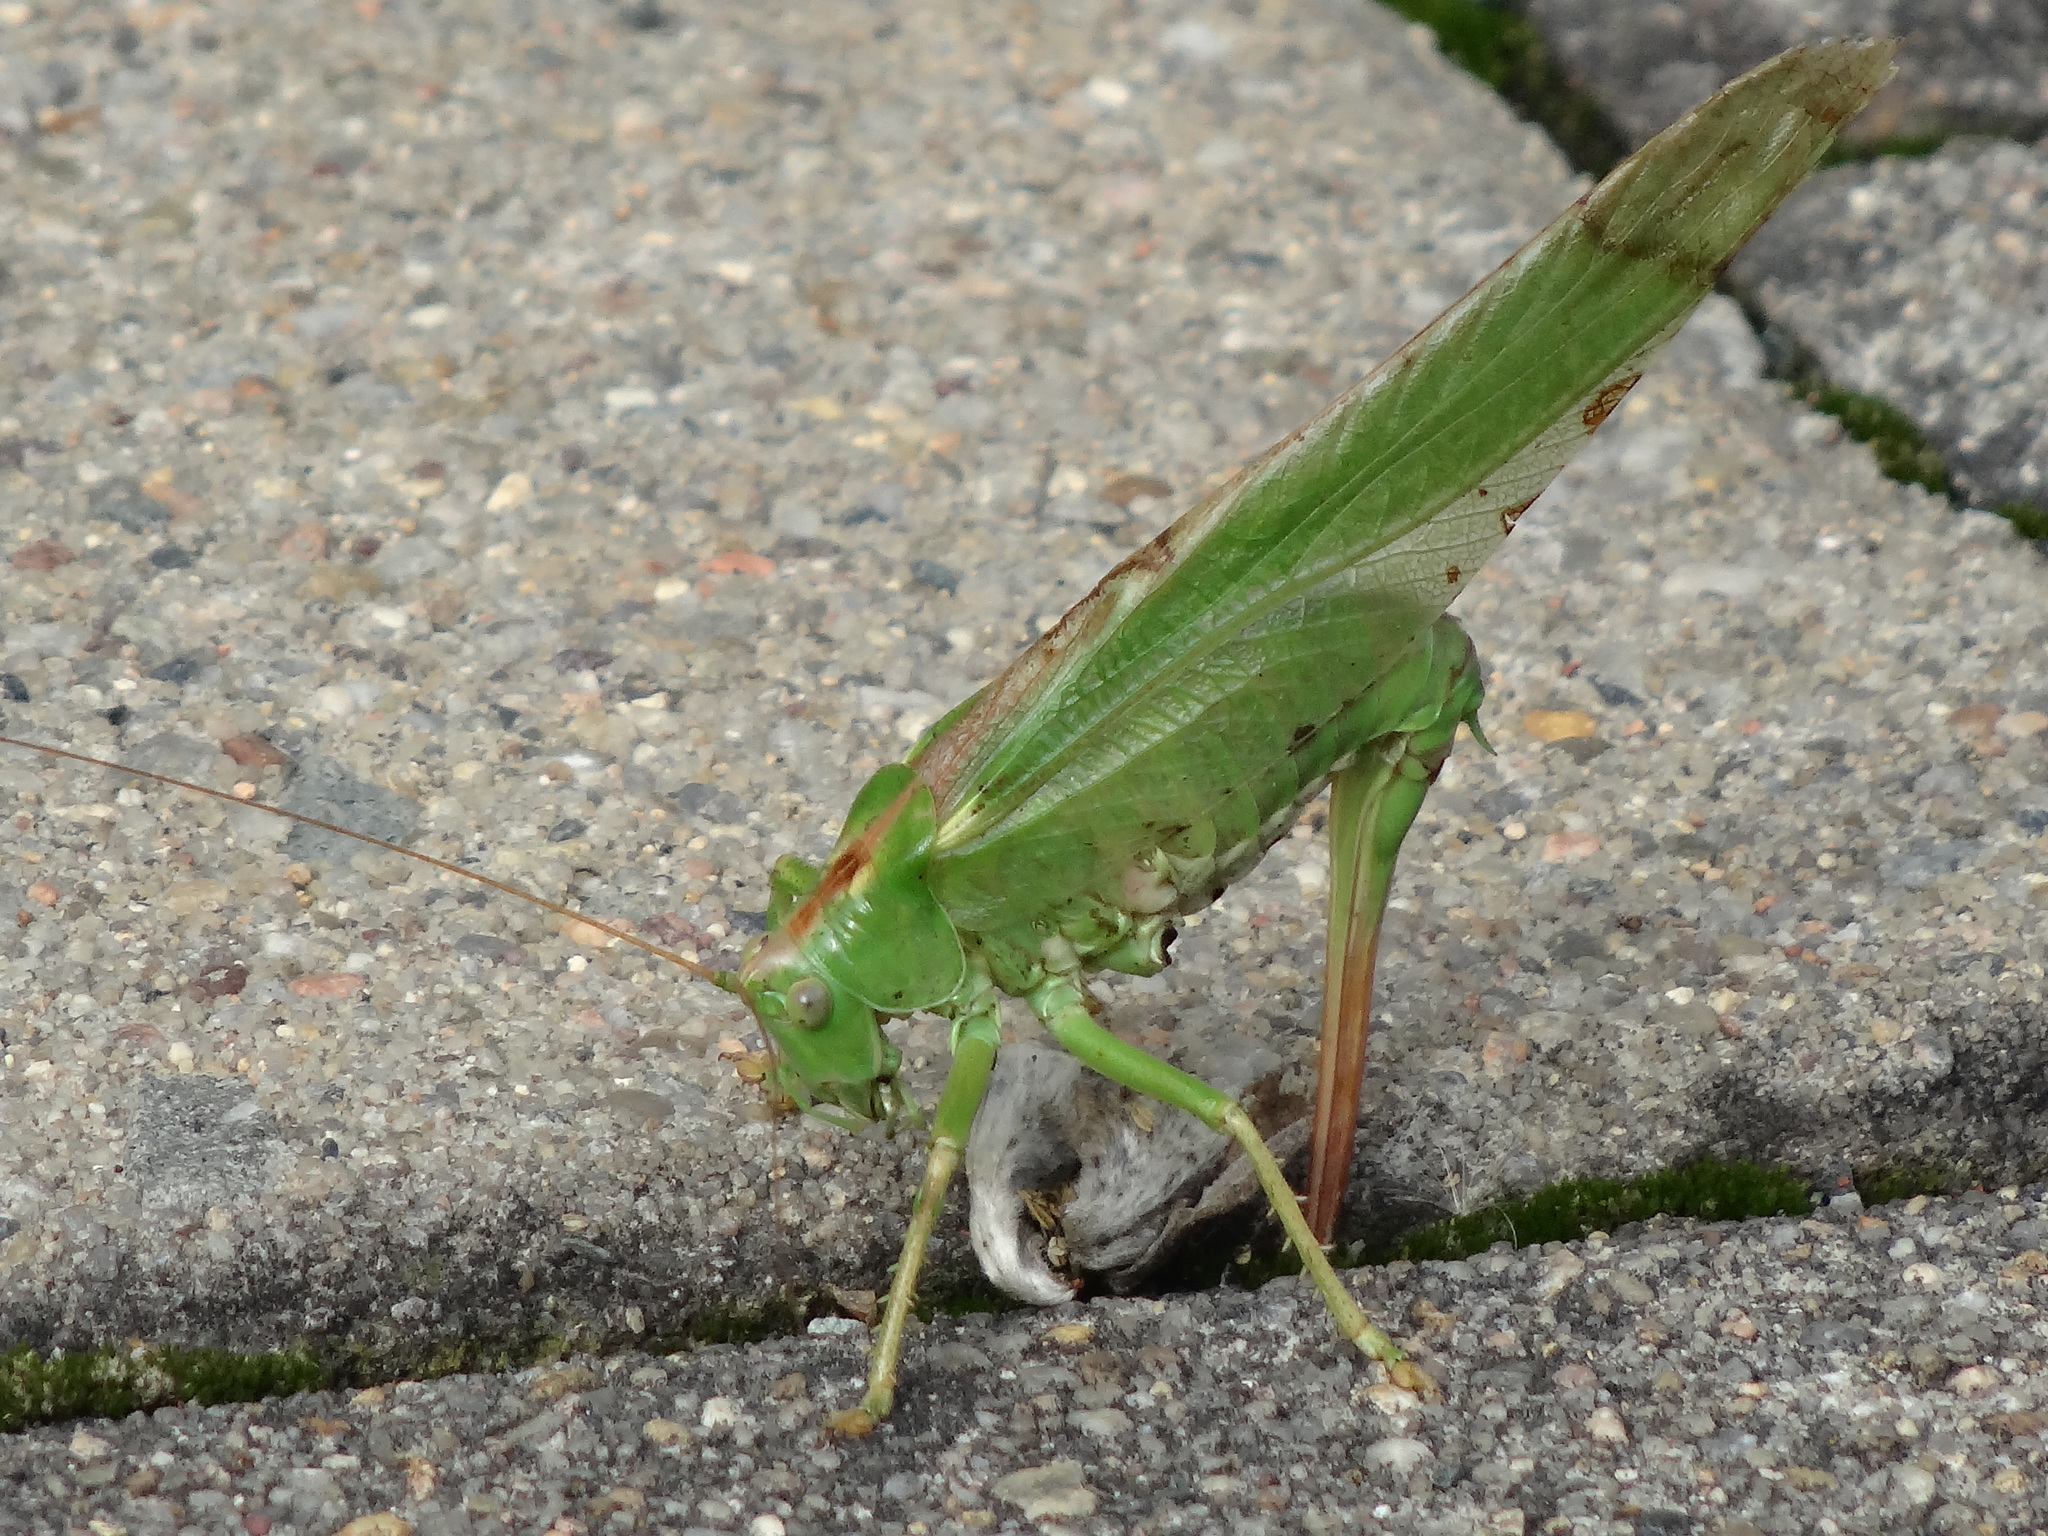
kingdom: Animalia
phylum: Arthropoda
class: Insecta
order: Orthoptera
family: Tettigoniidae
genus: Tettigonia
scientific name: Tettigonia viridissima
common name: Great green bush-cricket
